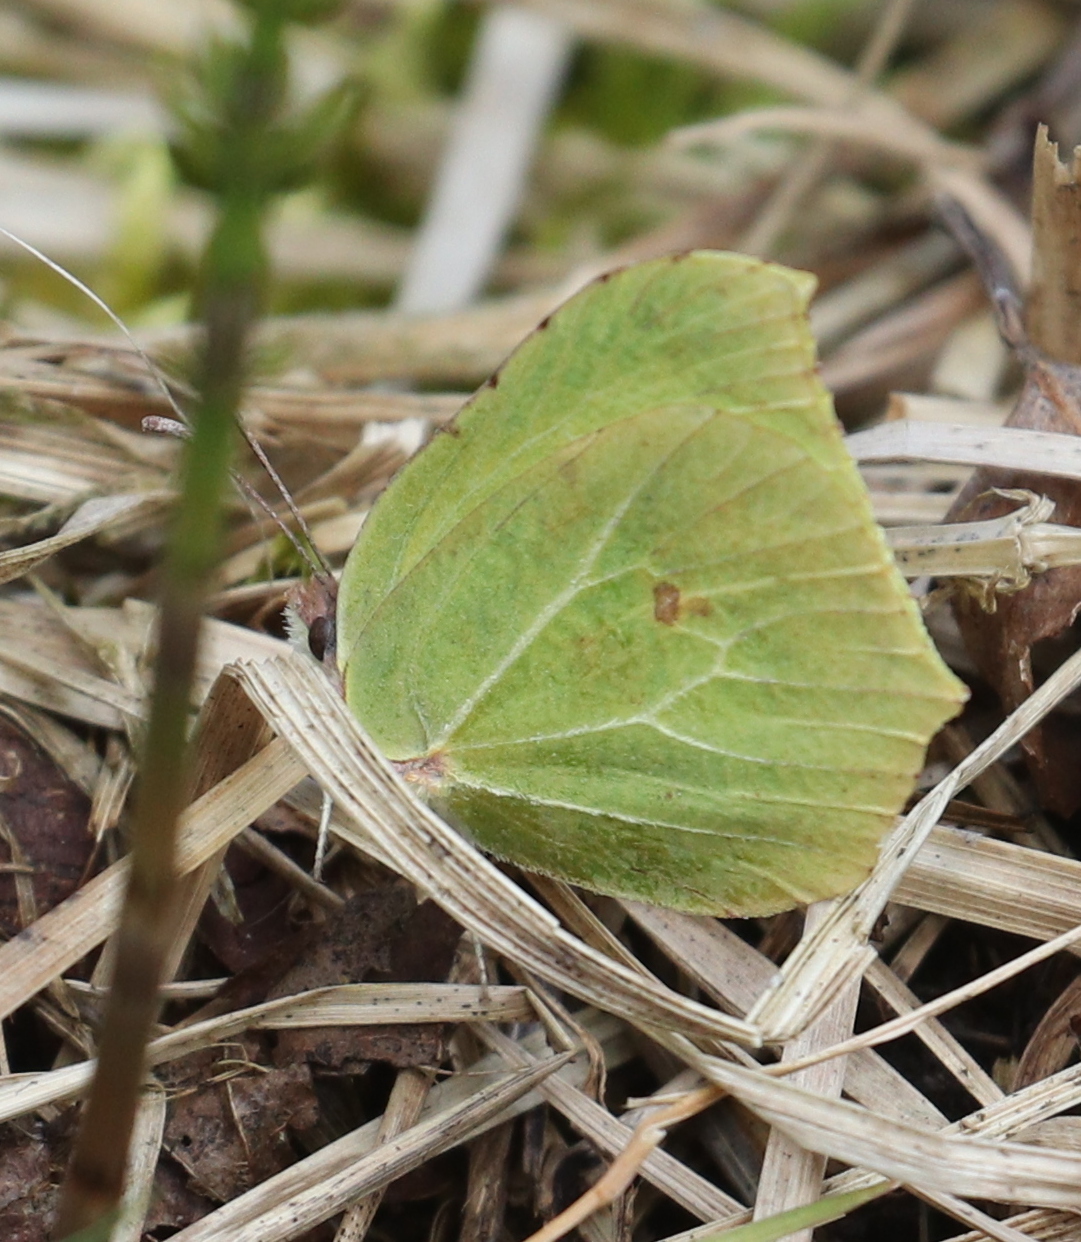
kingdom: Animalia
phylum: Arthropoda
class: Insecta
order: Lepidoptera
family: Pieridae
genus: Gonepteryx
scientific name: Gonepteryx rhamni
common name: Brimstone
